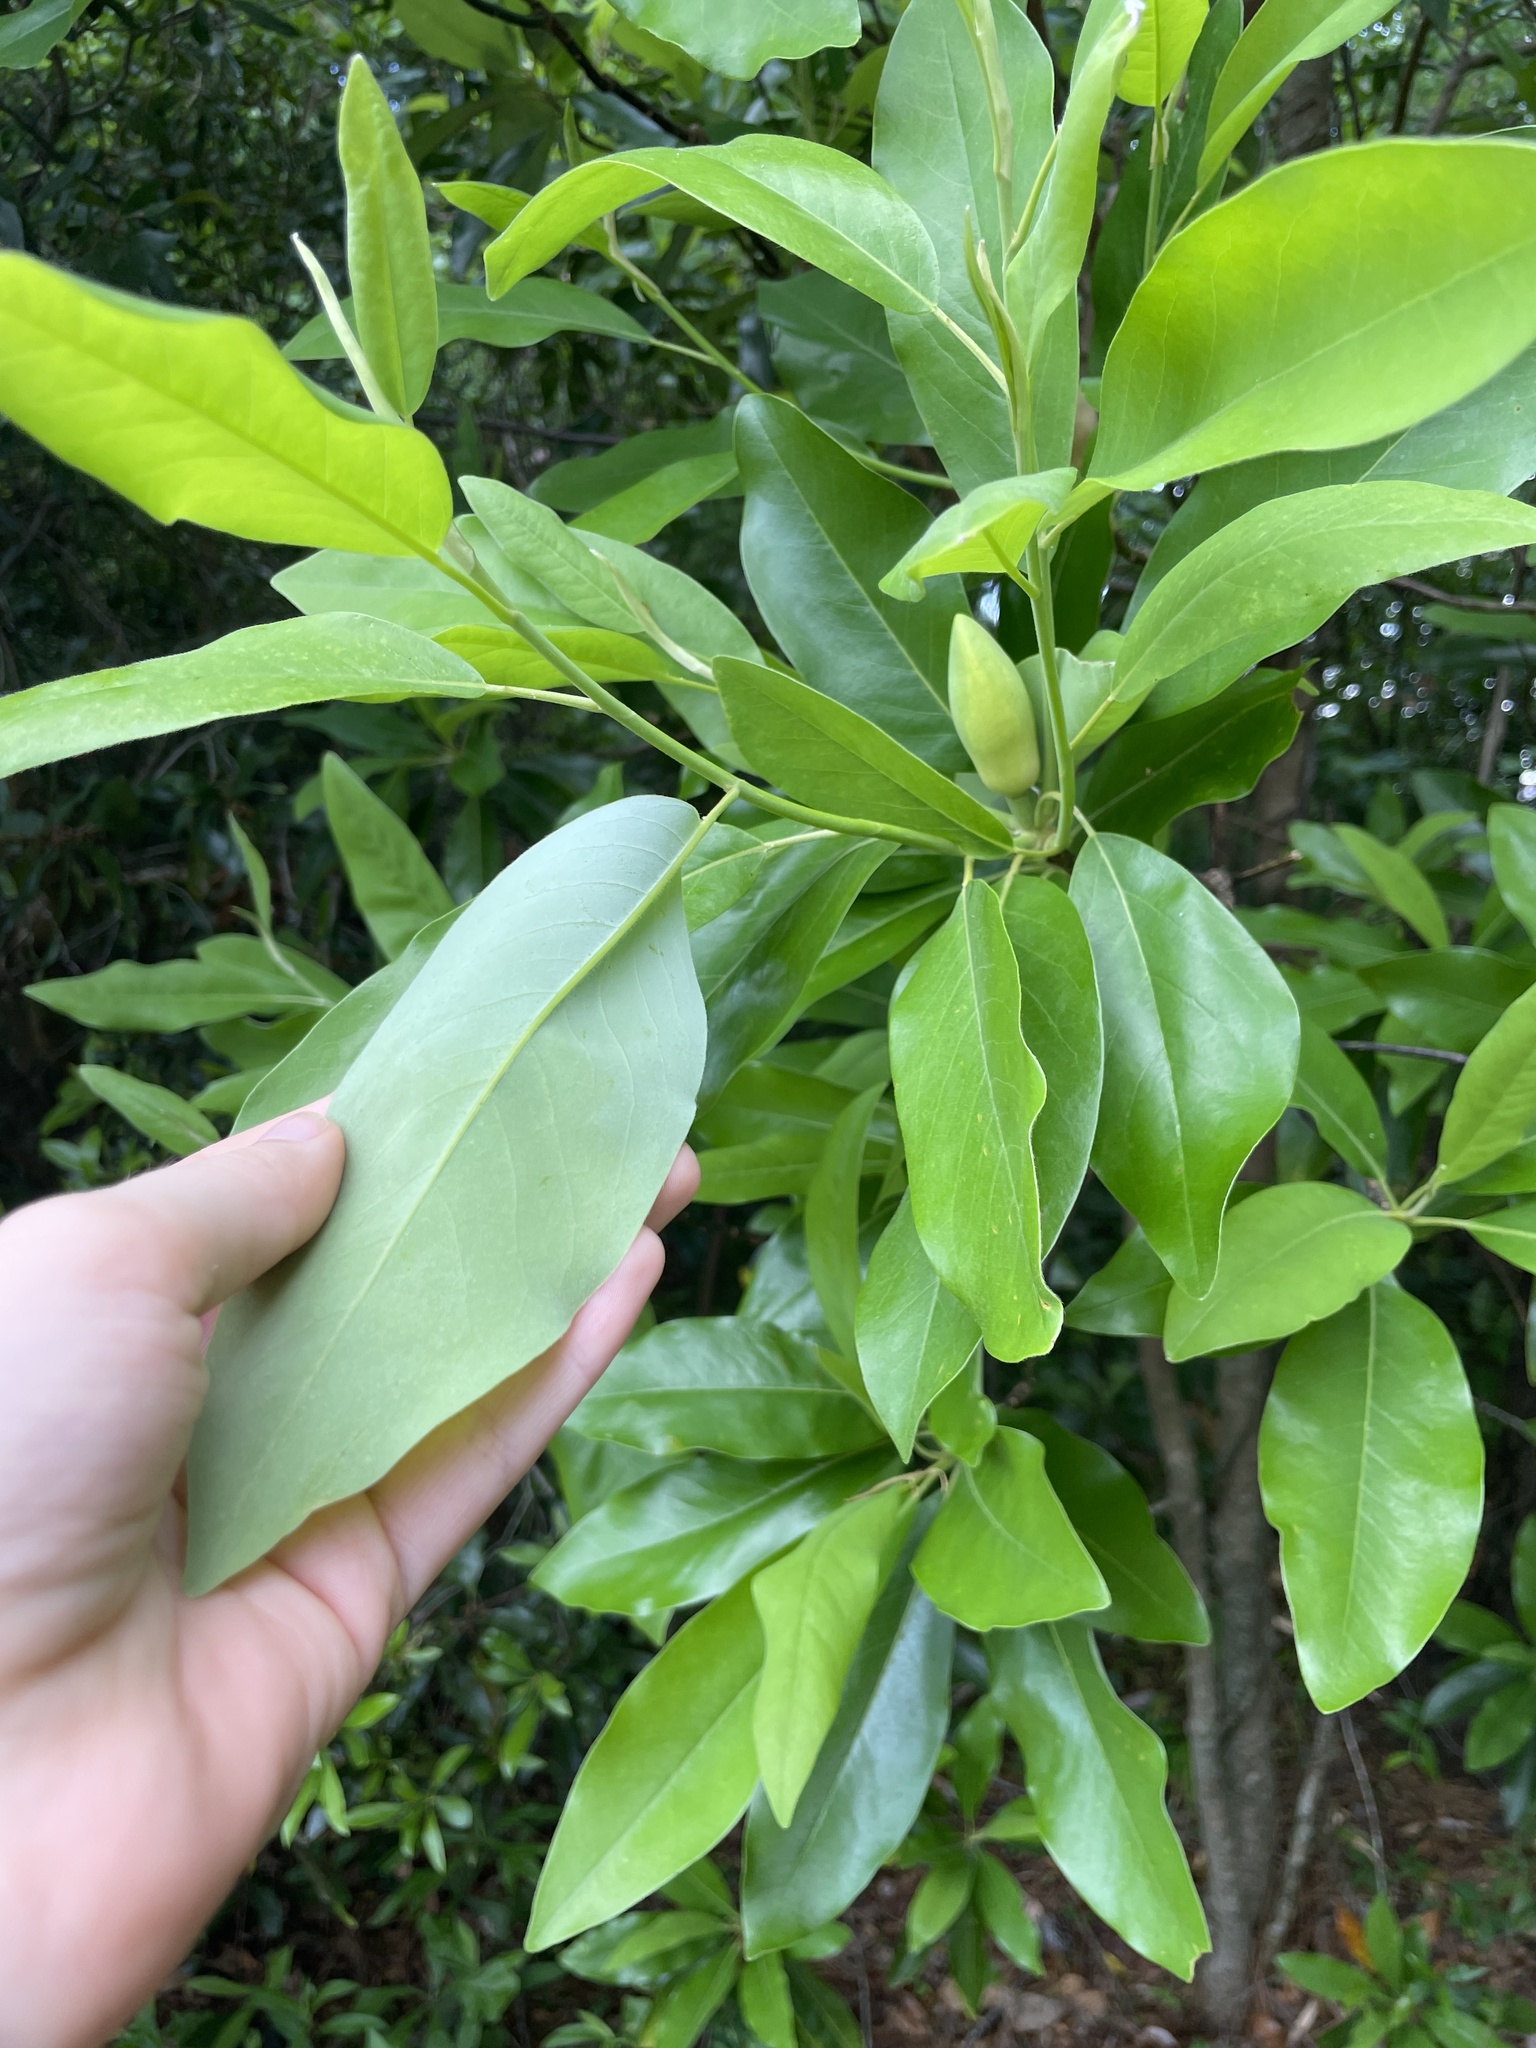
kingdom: Plantae
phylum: Tracheophyta
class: Magnoliopsida
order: Magnoliales
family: Magnoliaceae
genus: Magnolia
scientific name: Magnolia virginiana
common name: Swamp bay
